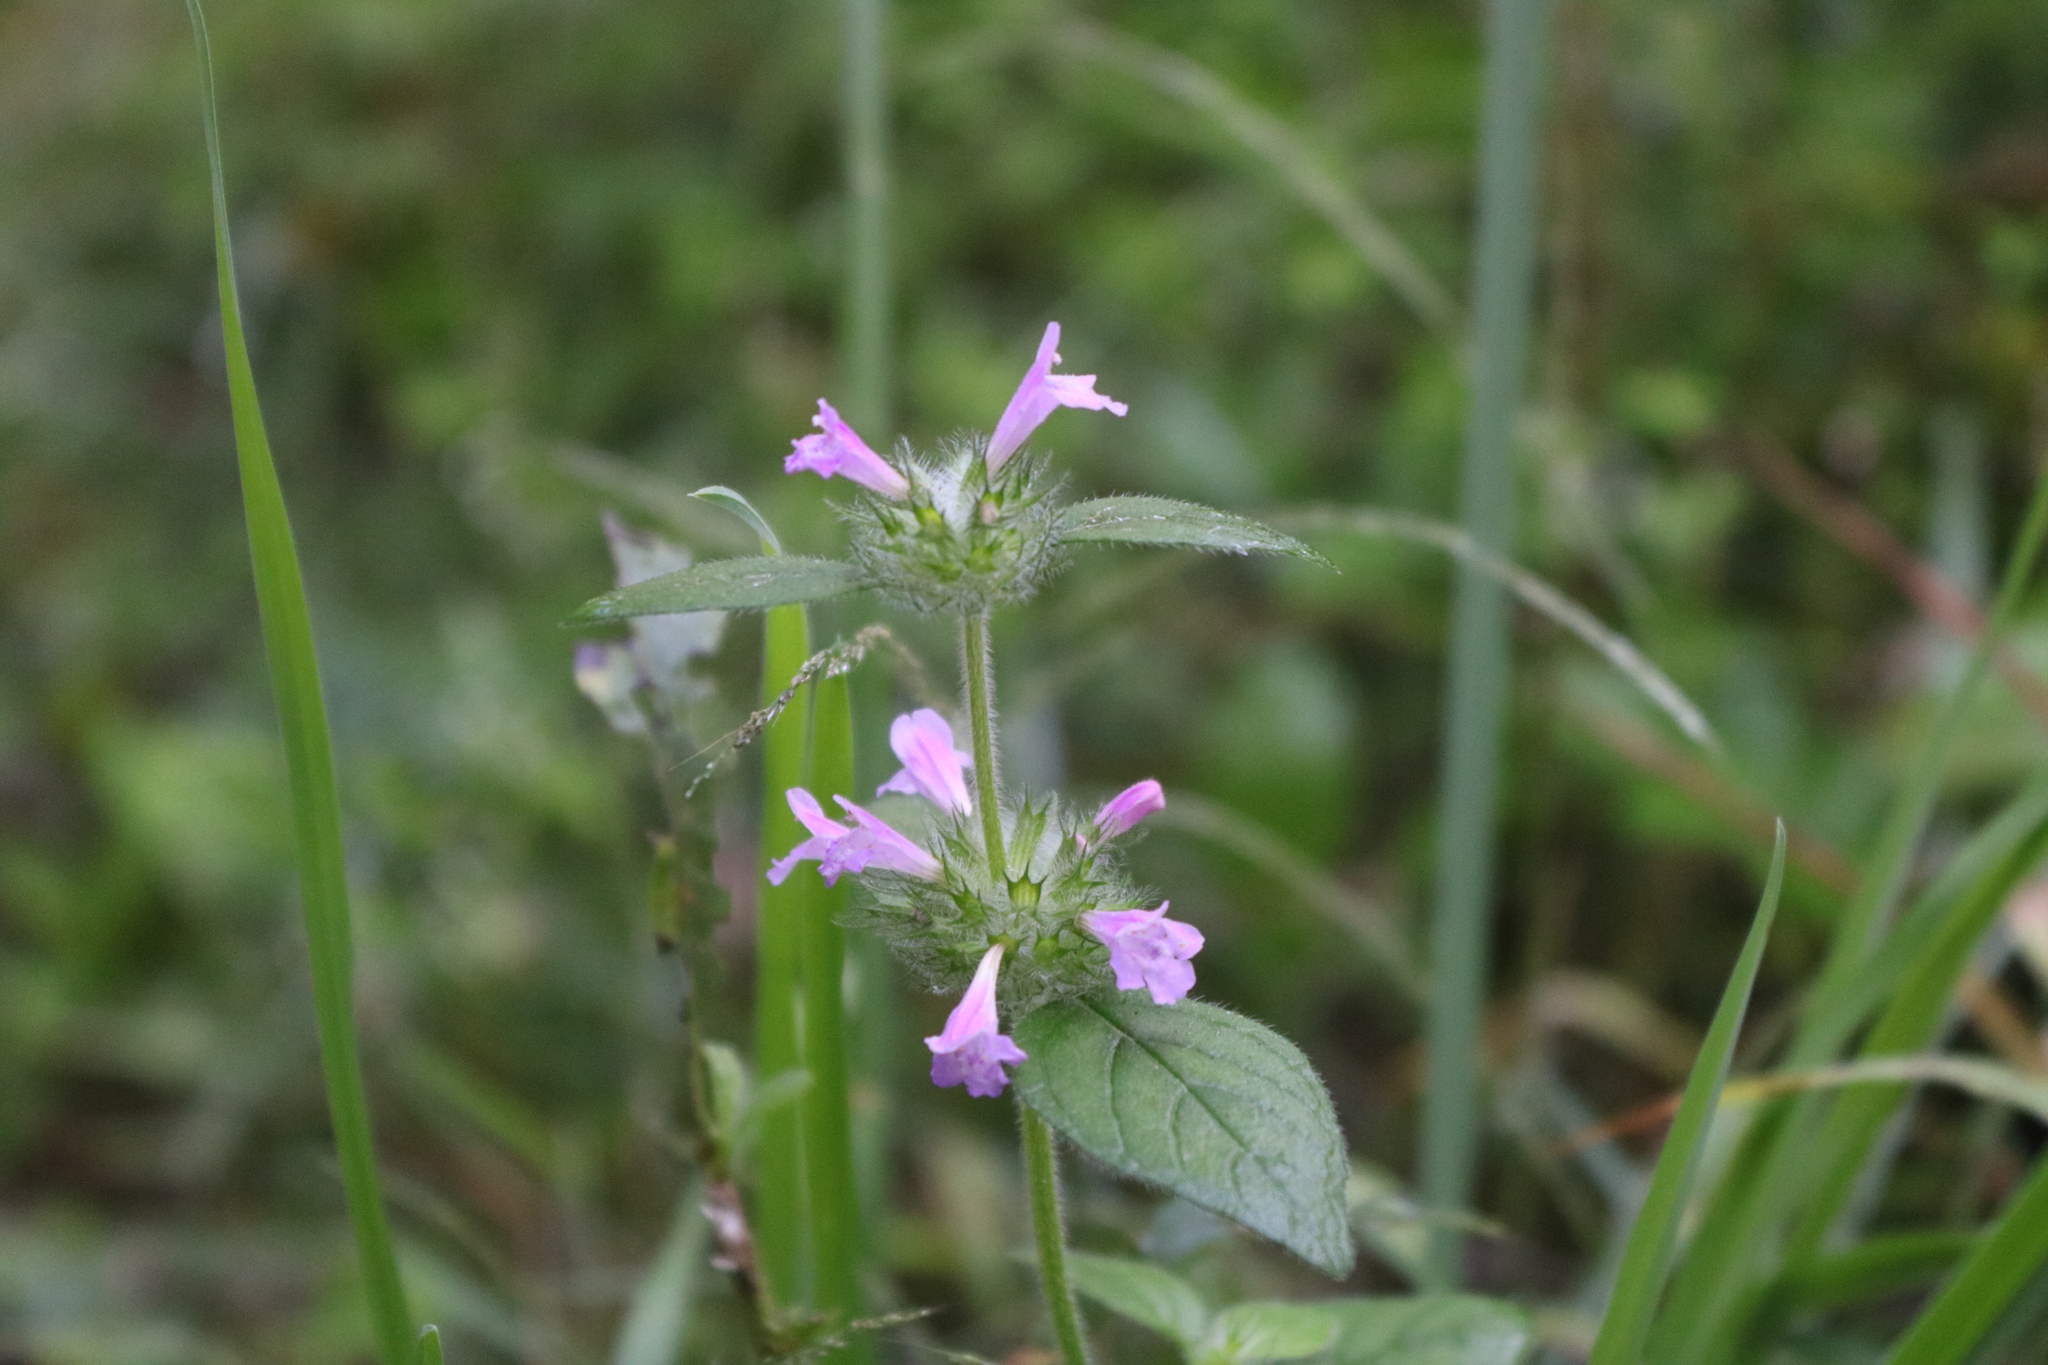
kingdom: Plantae
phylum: Tracheophyta
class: Magnoliopsida
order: Lamiales
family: Lamiaceae
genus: Clinopodium
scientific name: Clinopodium vulgare
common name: Wild basil
